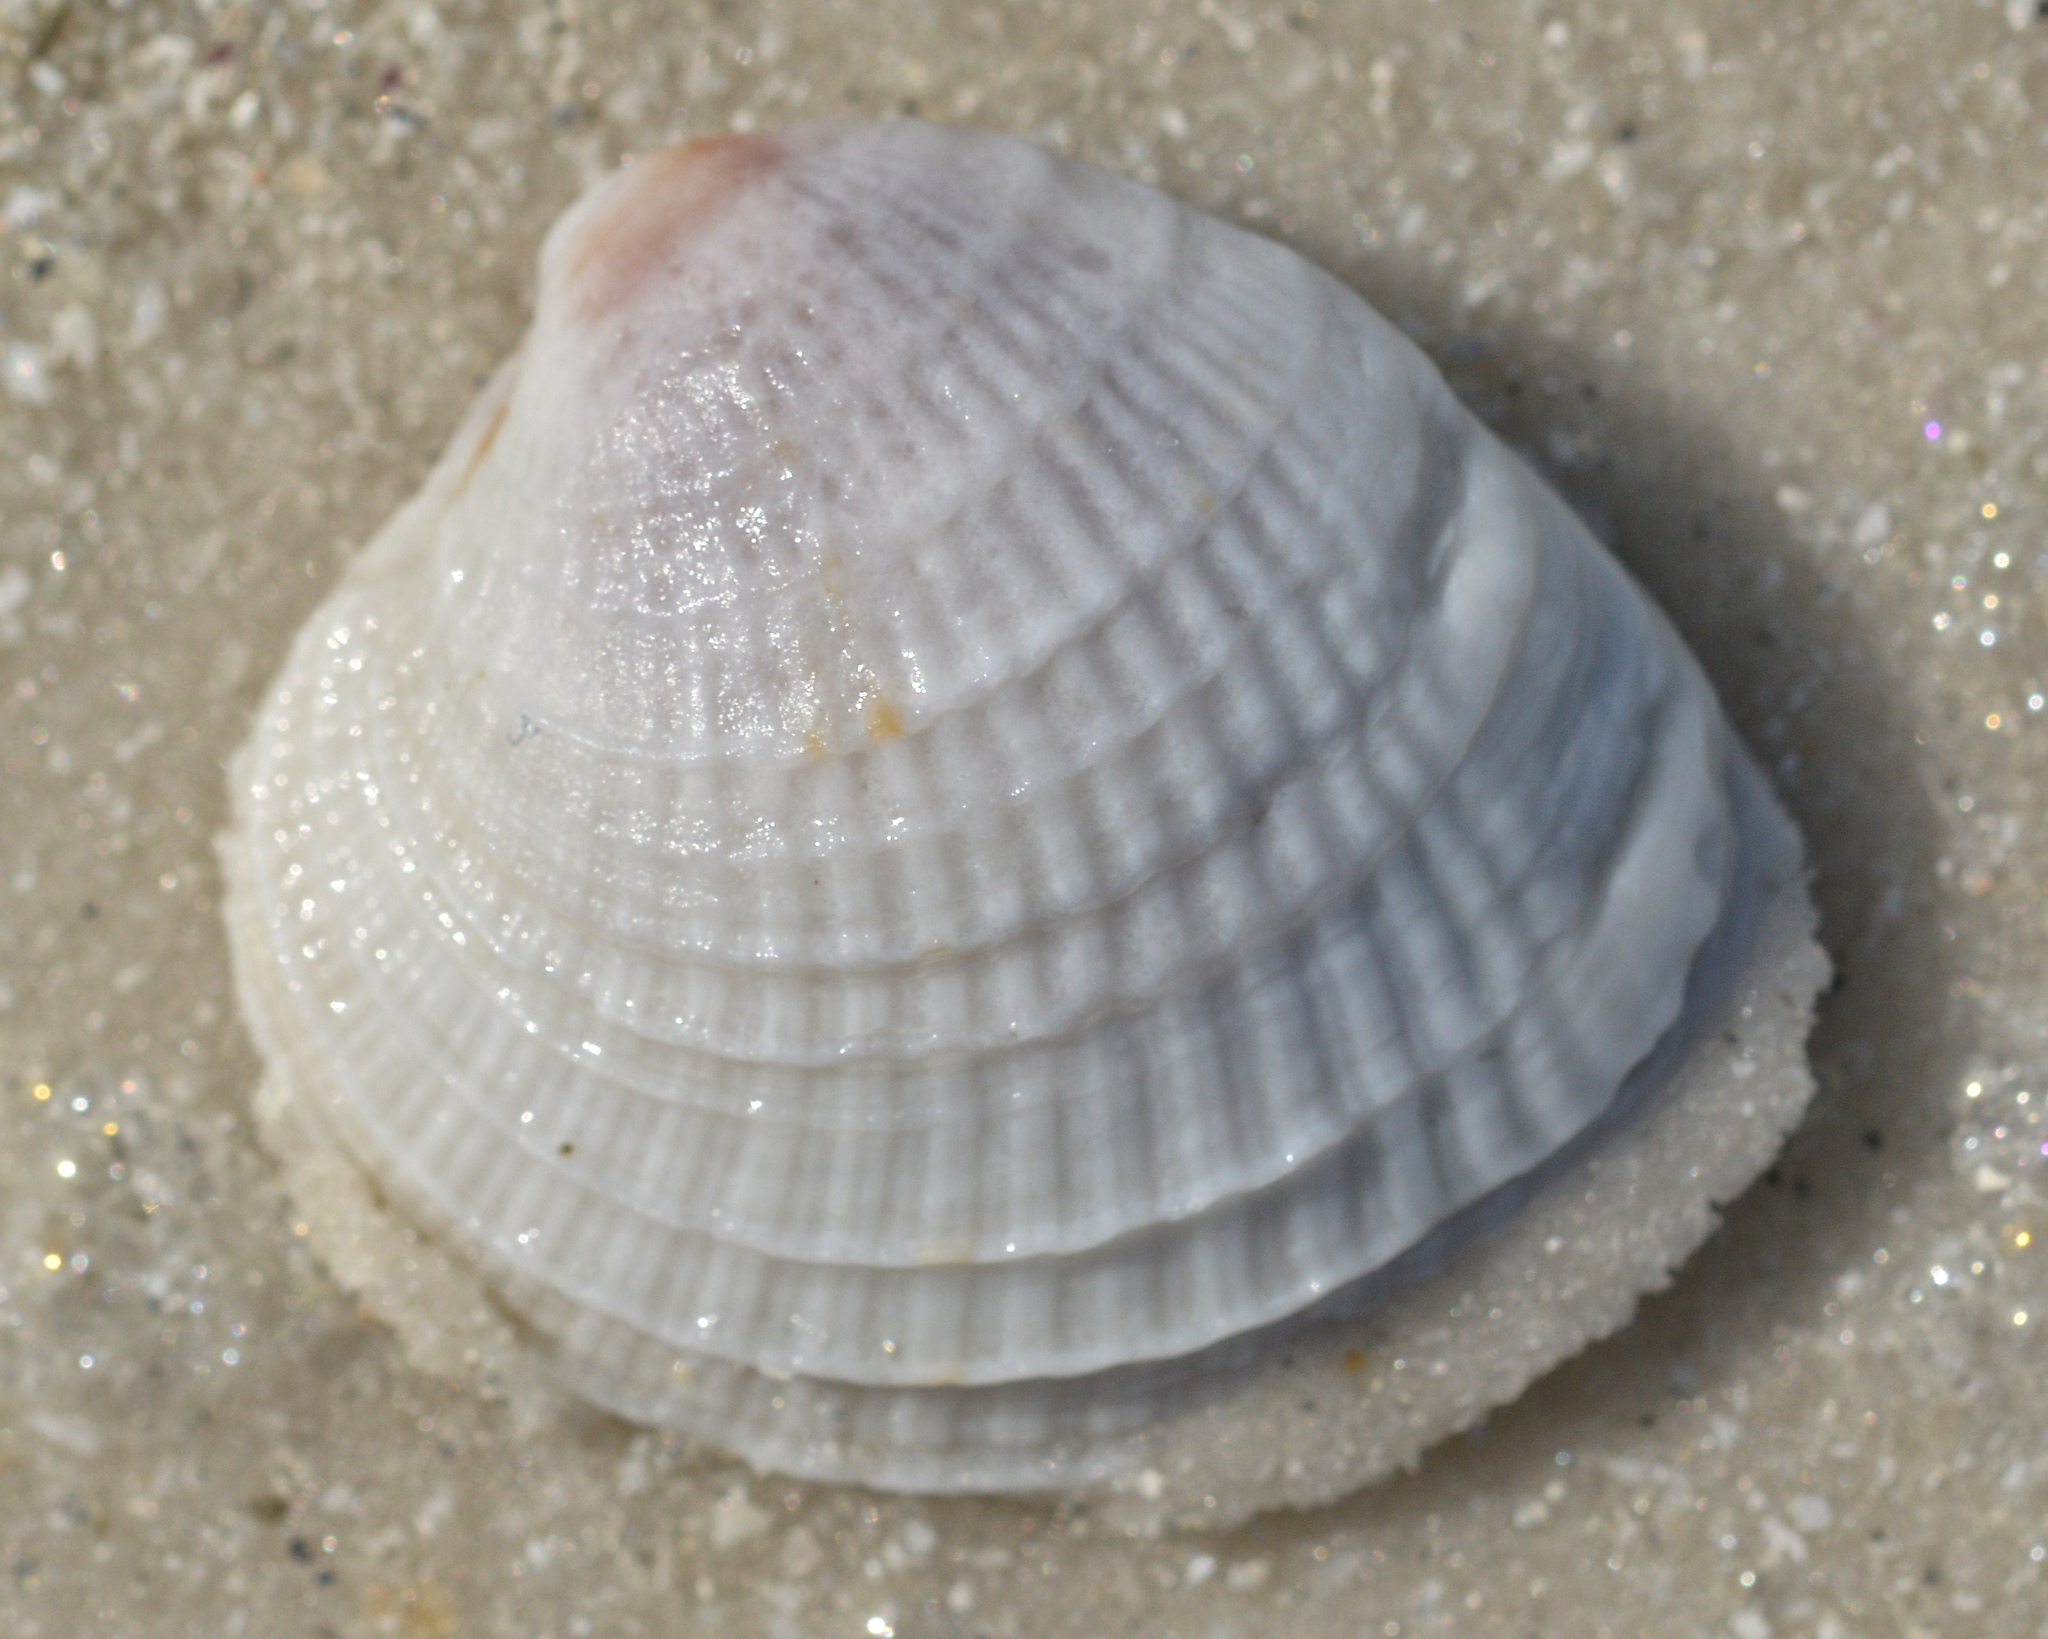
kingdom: Animalia
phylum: Mollusca
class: Bivalvia
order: Venerida
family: Veneridae
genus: Chione
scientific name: Chione elevata
